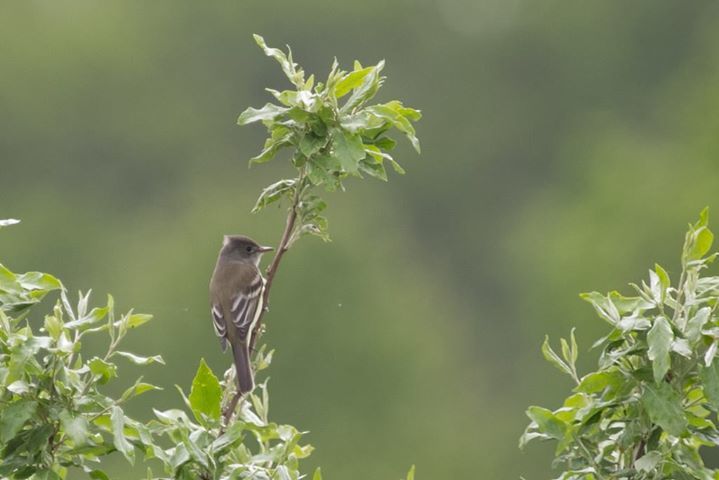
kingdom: Animalia
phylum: Chordata
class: Aves
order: Passeriformes
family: Tyrannidae
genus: Empidonax
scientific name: Empidonax traillii
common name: Willow flycatcher
